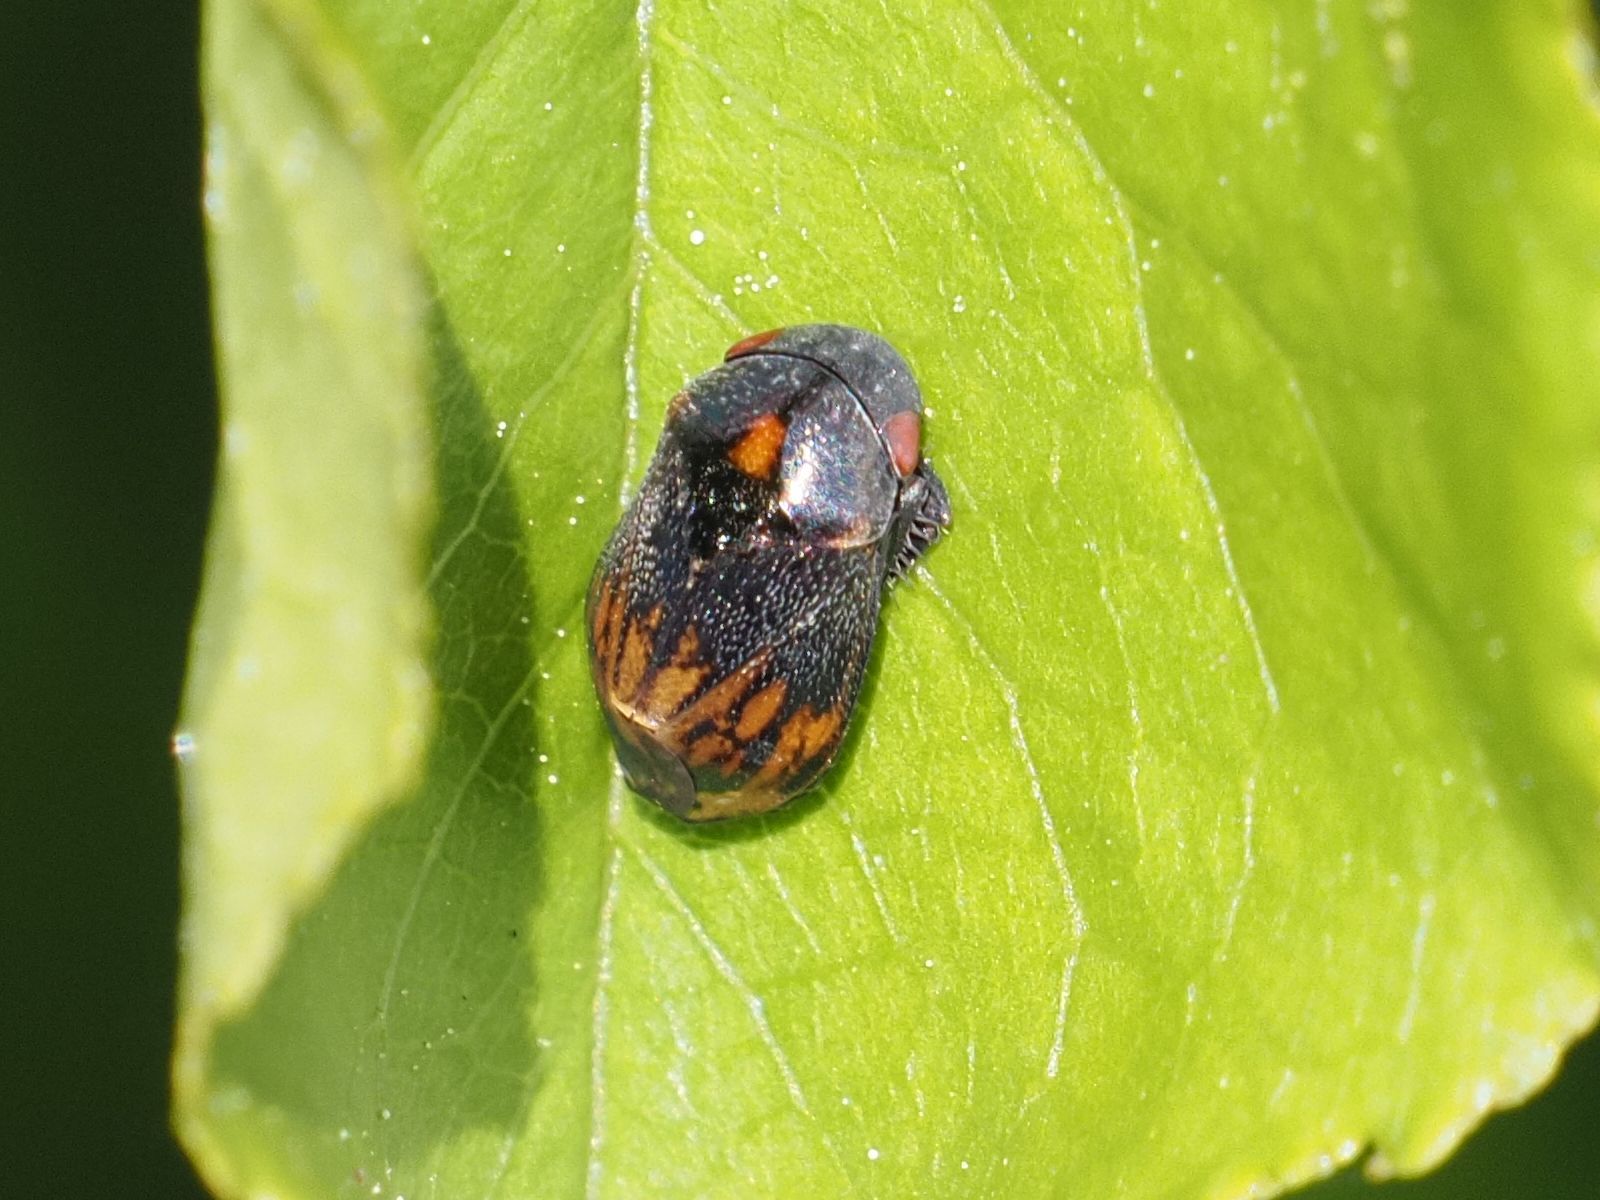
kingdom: Animalia
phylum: Arthropoda
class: Insecta
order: Hemiptera
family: Cicadellidae
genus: Penthimia
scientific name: Penthimia nigra
